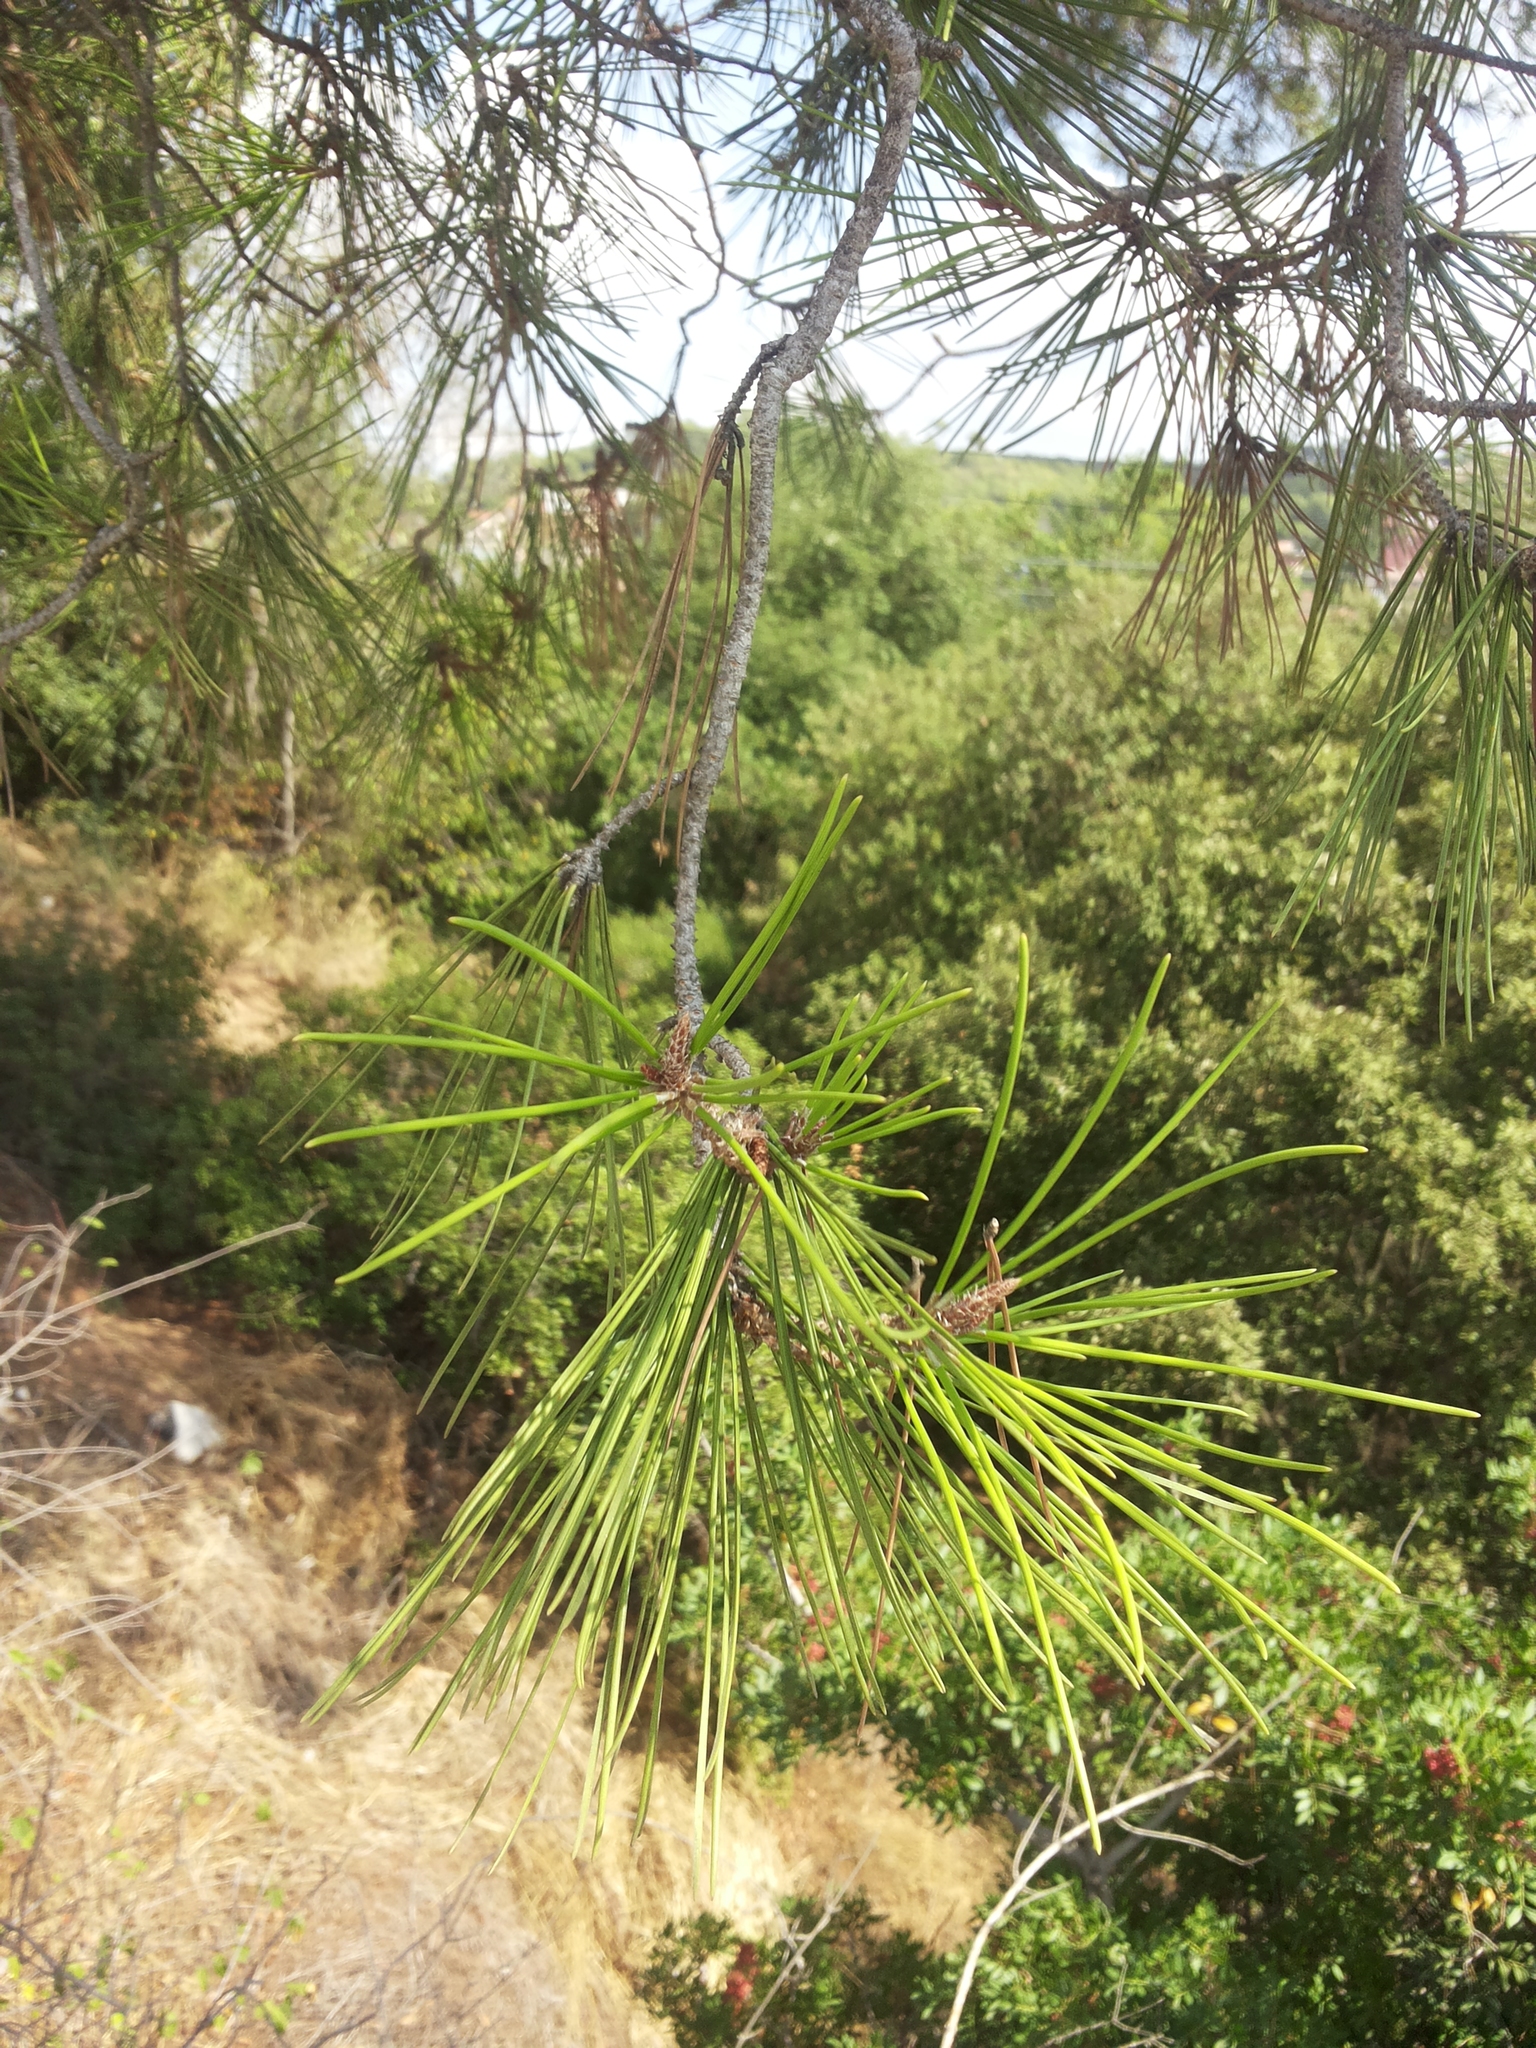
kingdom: Plantae
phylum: Tracheophyta
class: Pinopsida
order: Pinales
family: Pinaceae
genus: Pinus
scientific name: Pinus halepensis
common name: Aleppo pine
